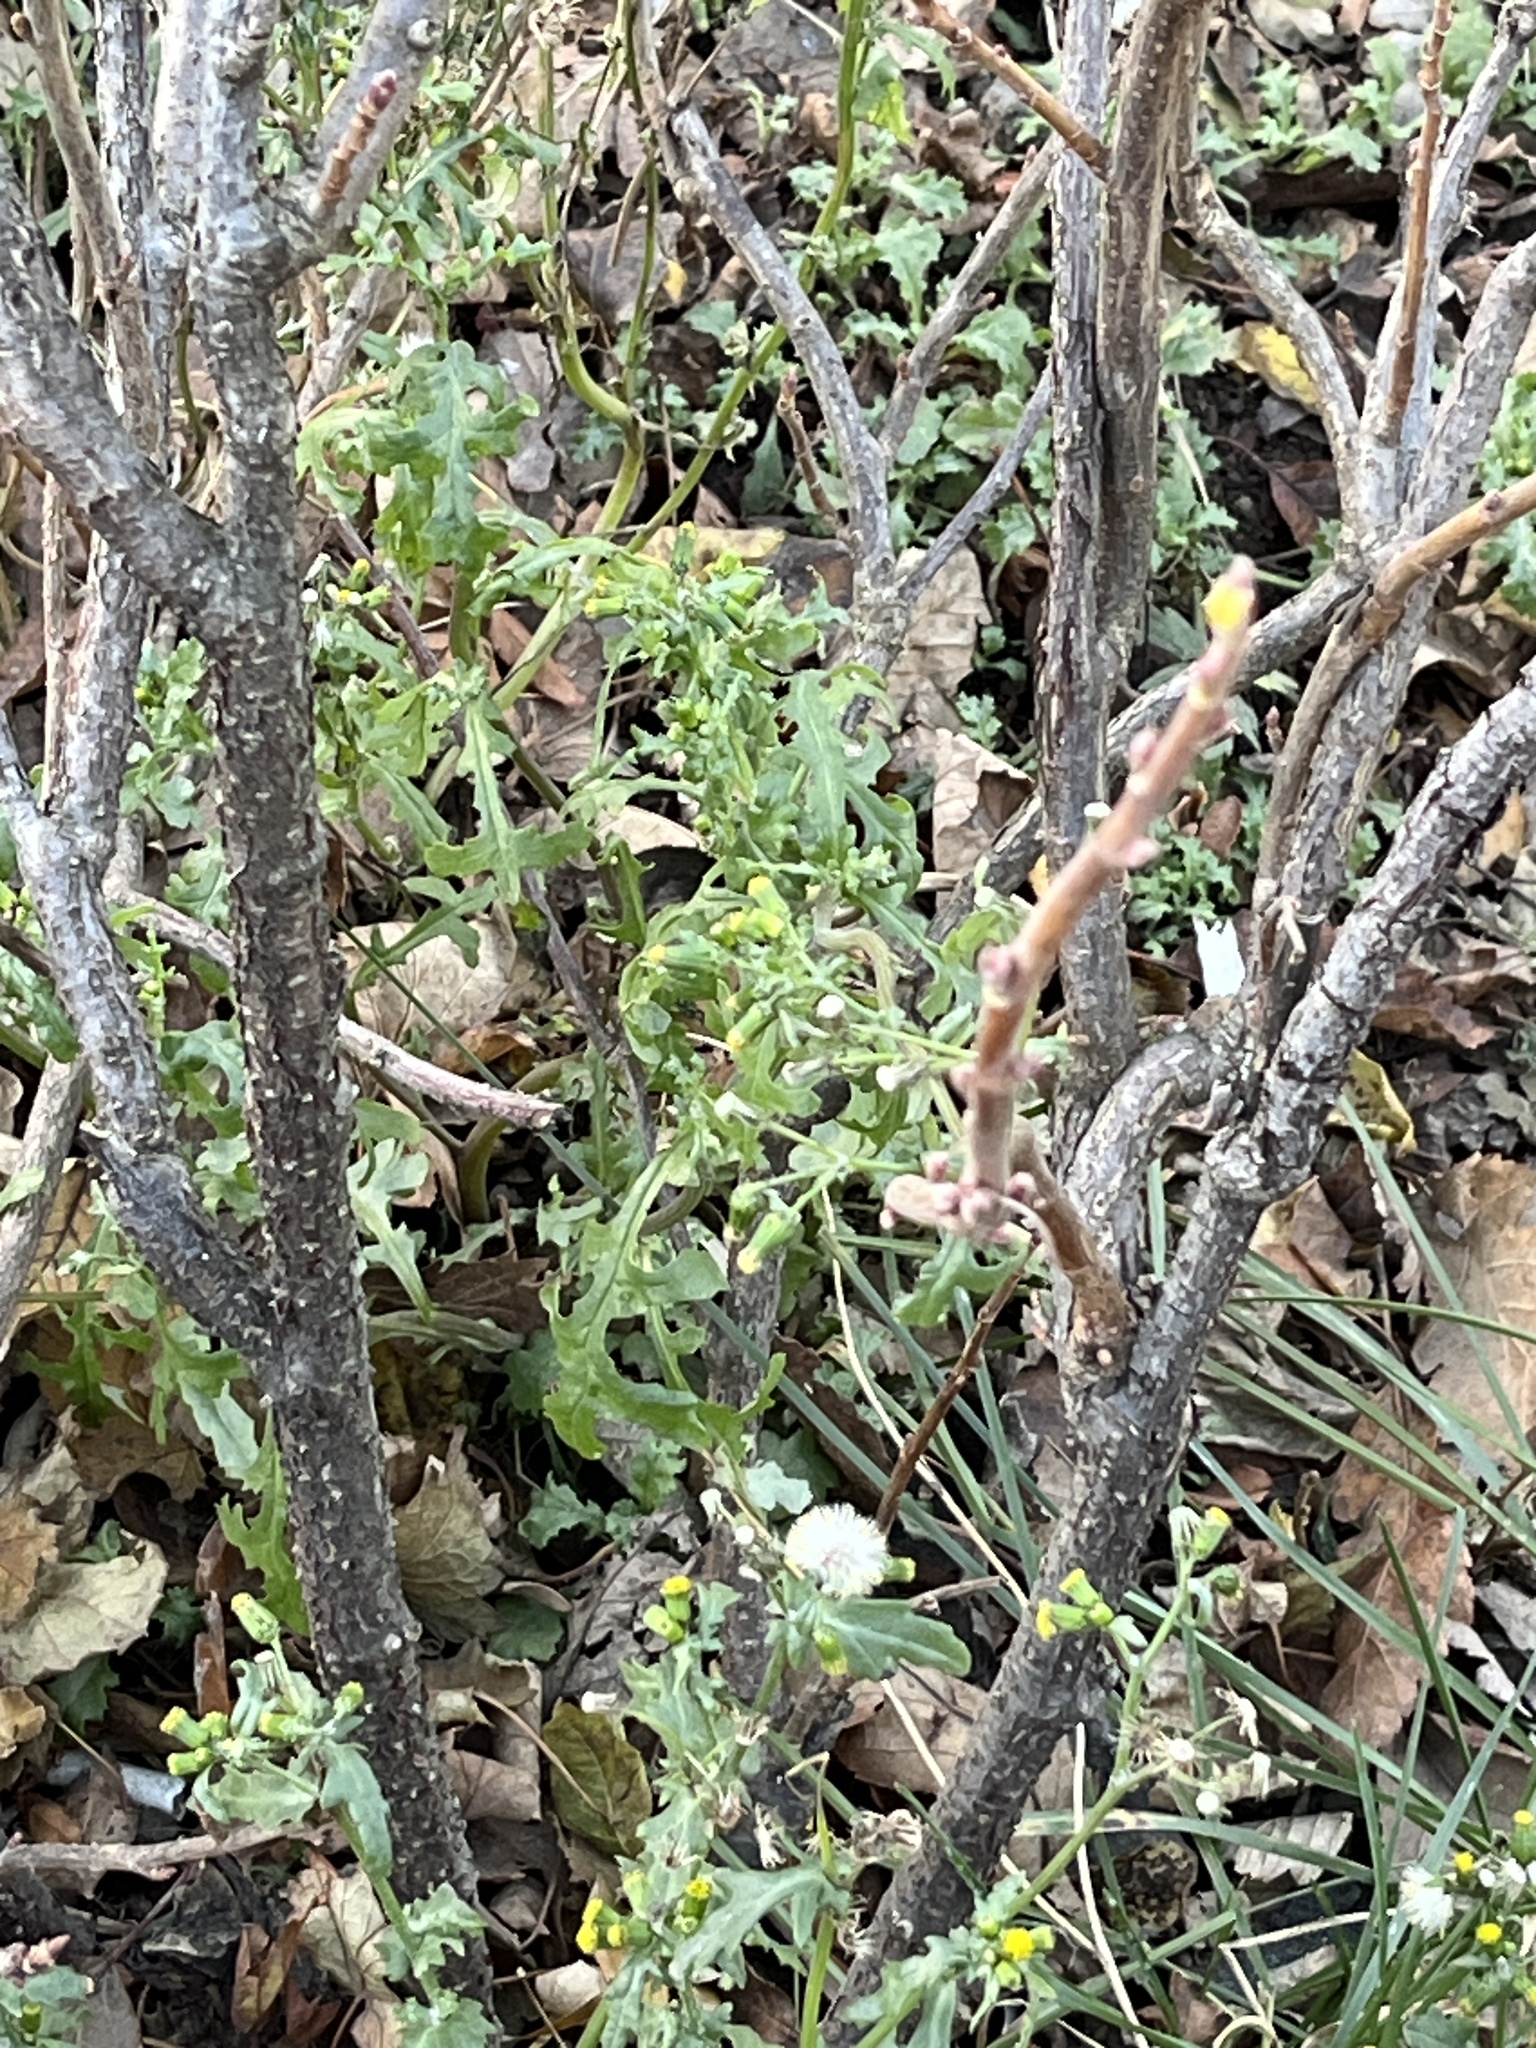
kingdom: Plantae
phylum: Tracheophyta
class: Magnoliopsida
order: Asterales
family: Asteraceae
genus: Senecio
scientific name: Senecio vulgaris
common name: Old-man-in-the-spring
